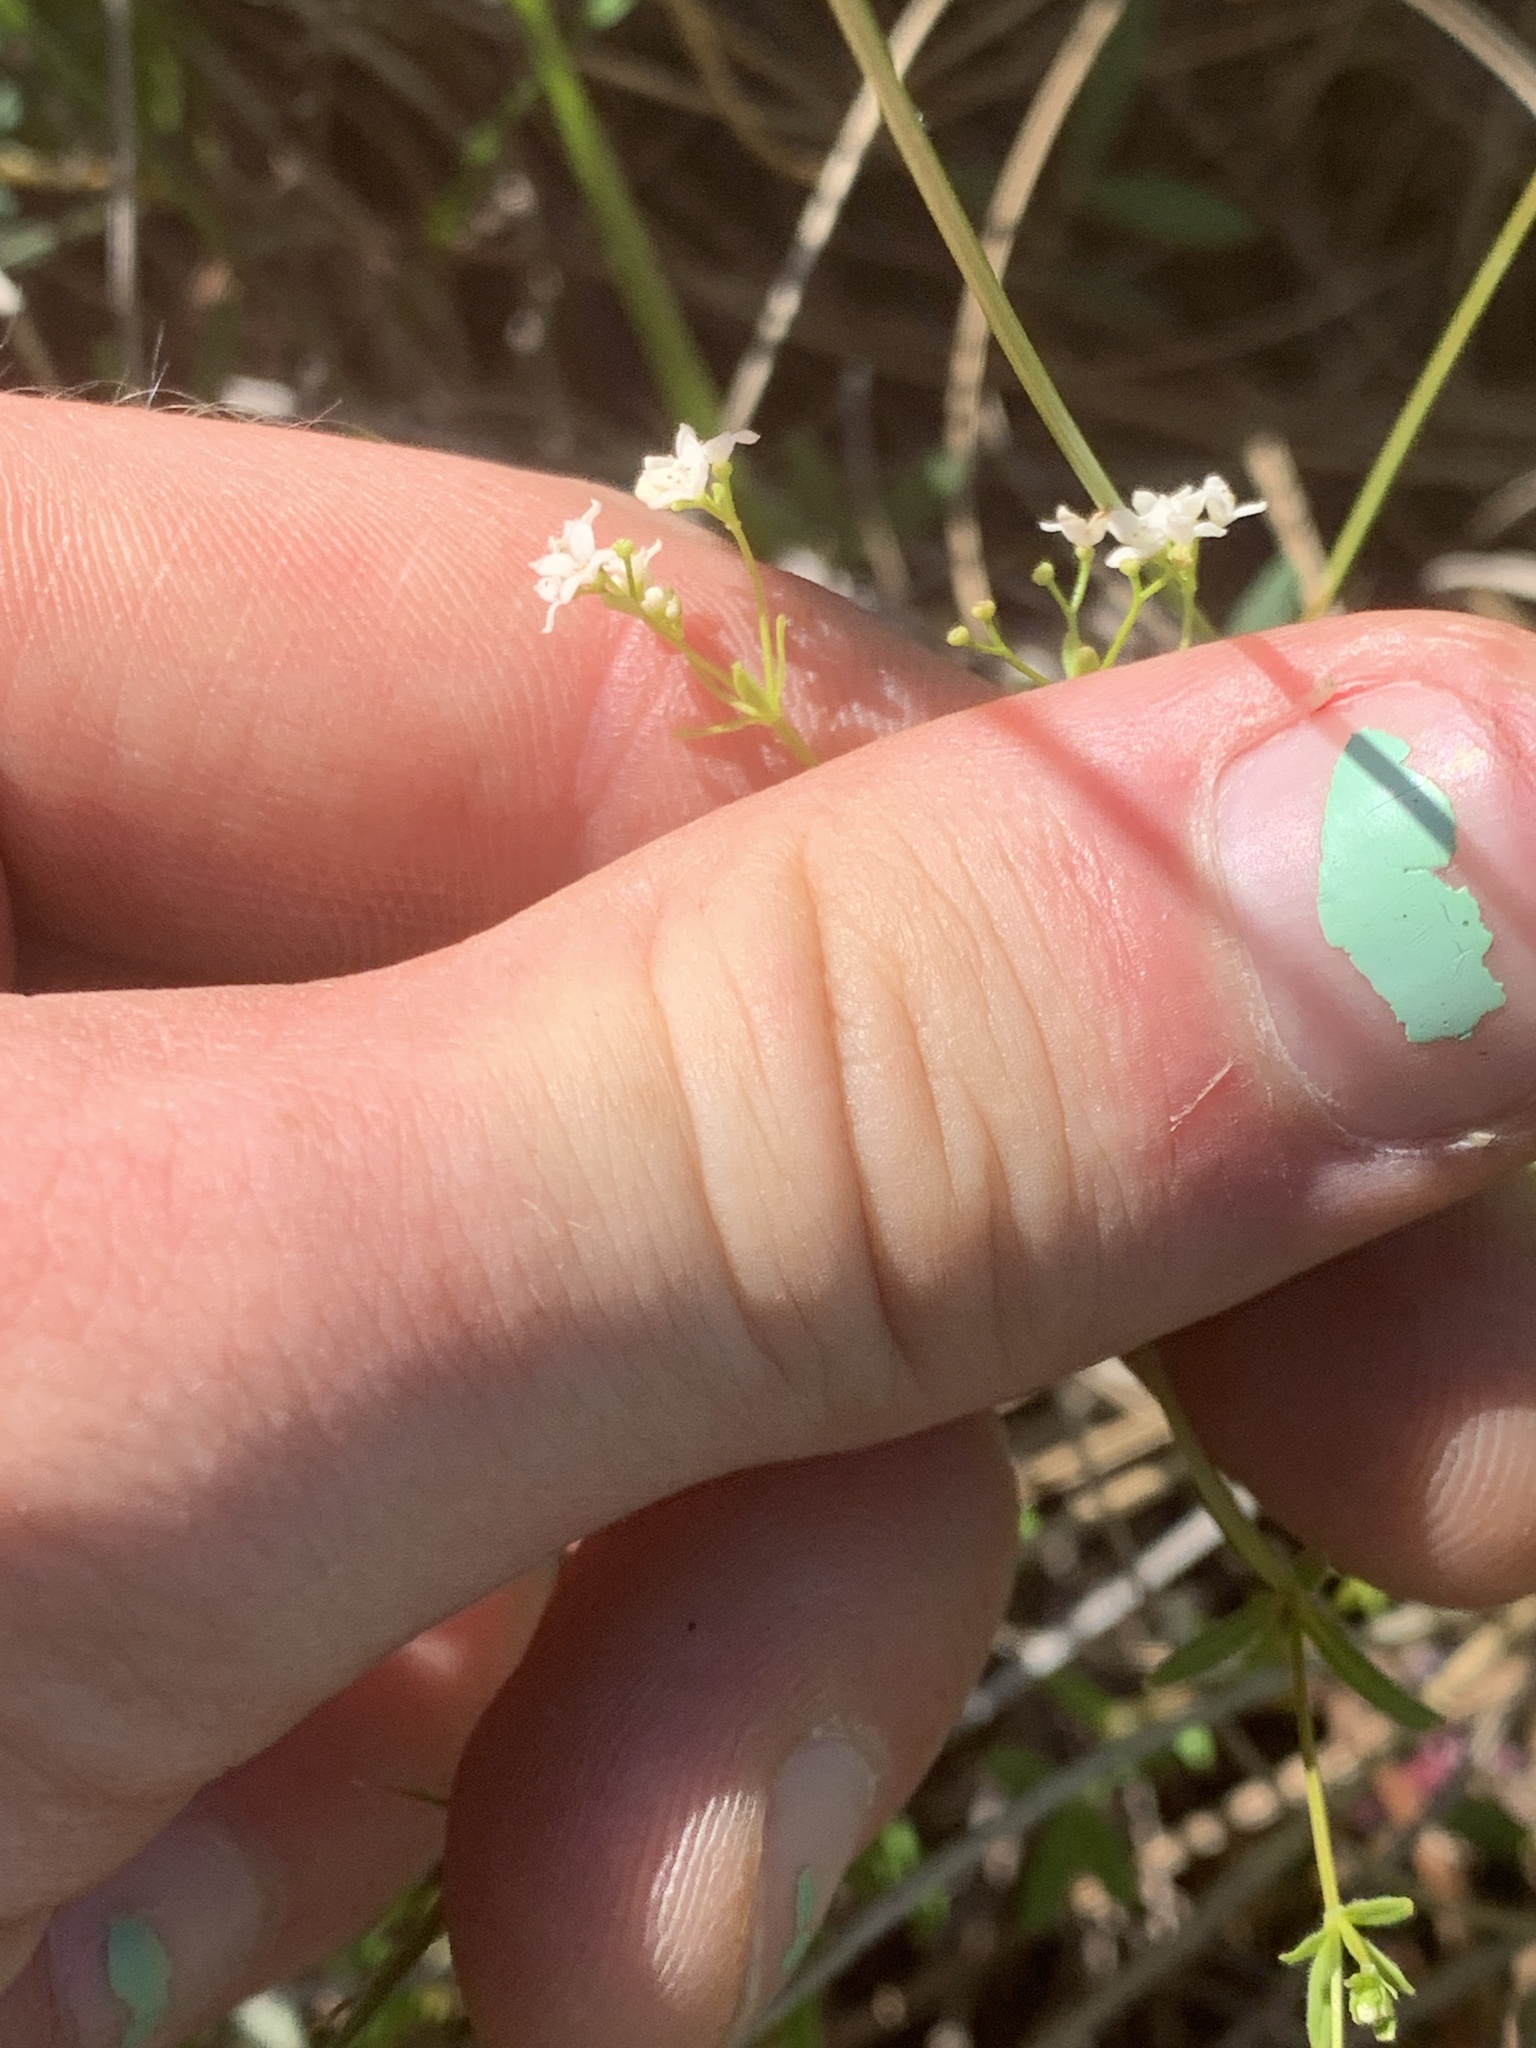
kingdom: Plantae
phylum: Tracheophyta
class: Magnoliopsida
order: Gentianales
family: Rubiaceae
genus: Galium
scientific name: Galium labradoricum
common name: Labrador bedstraw
